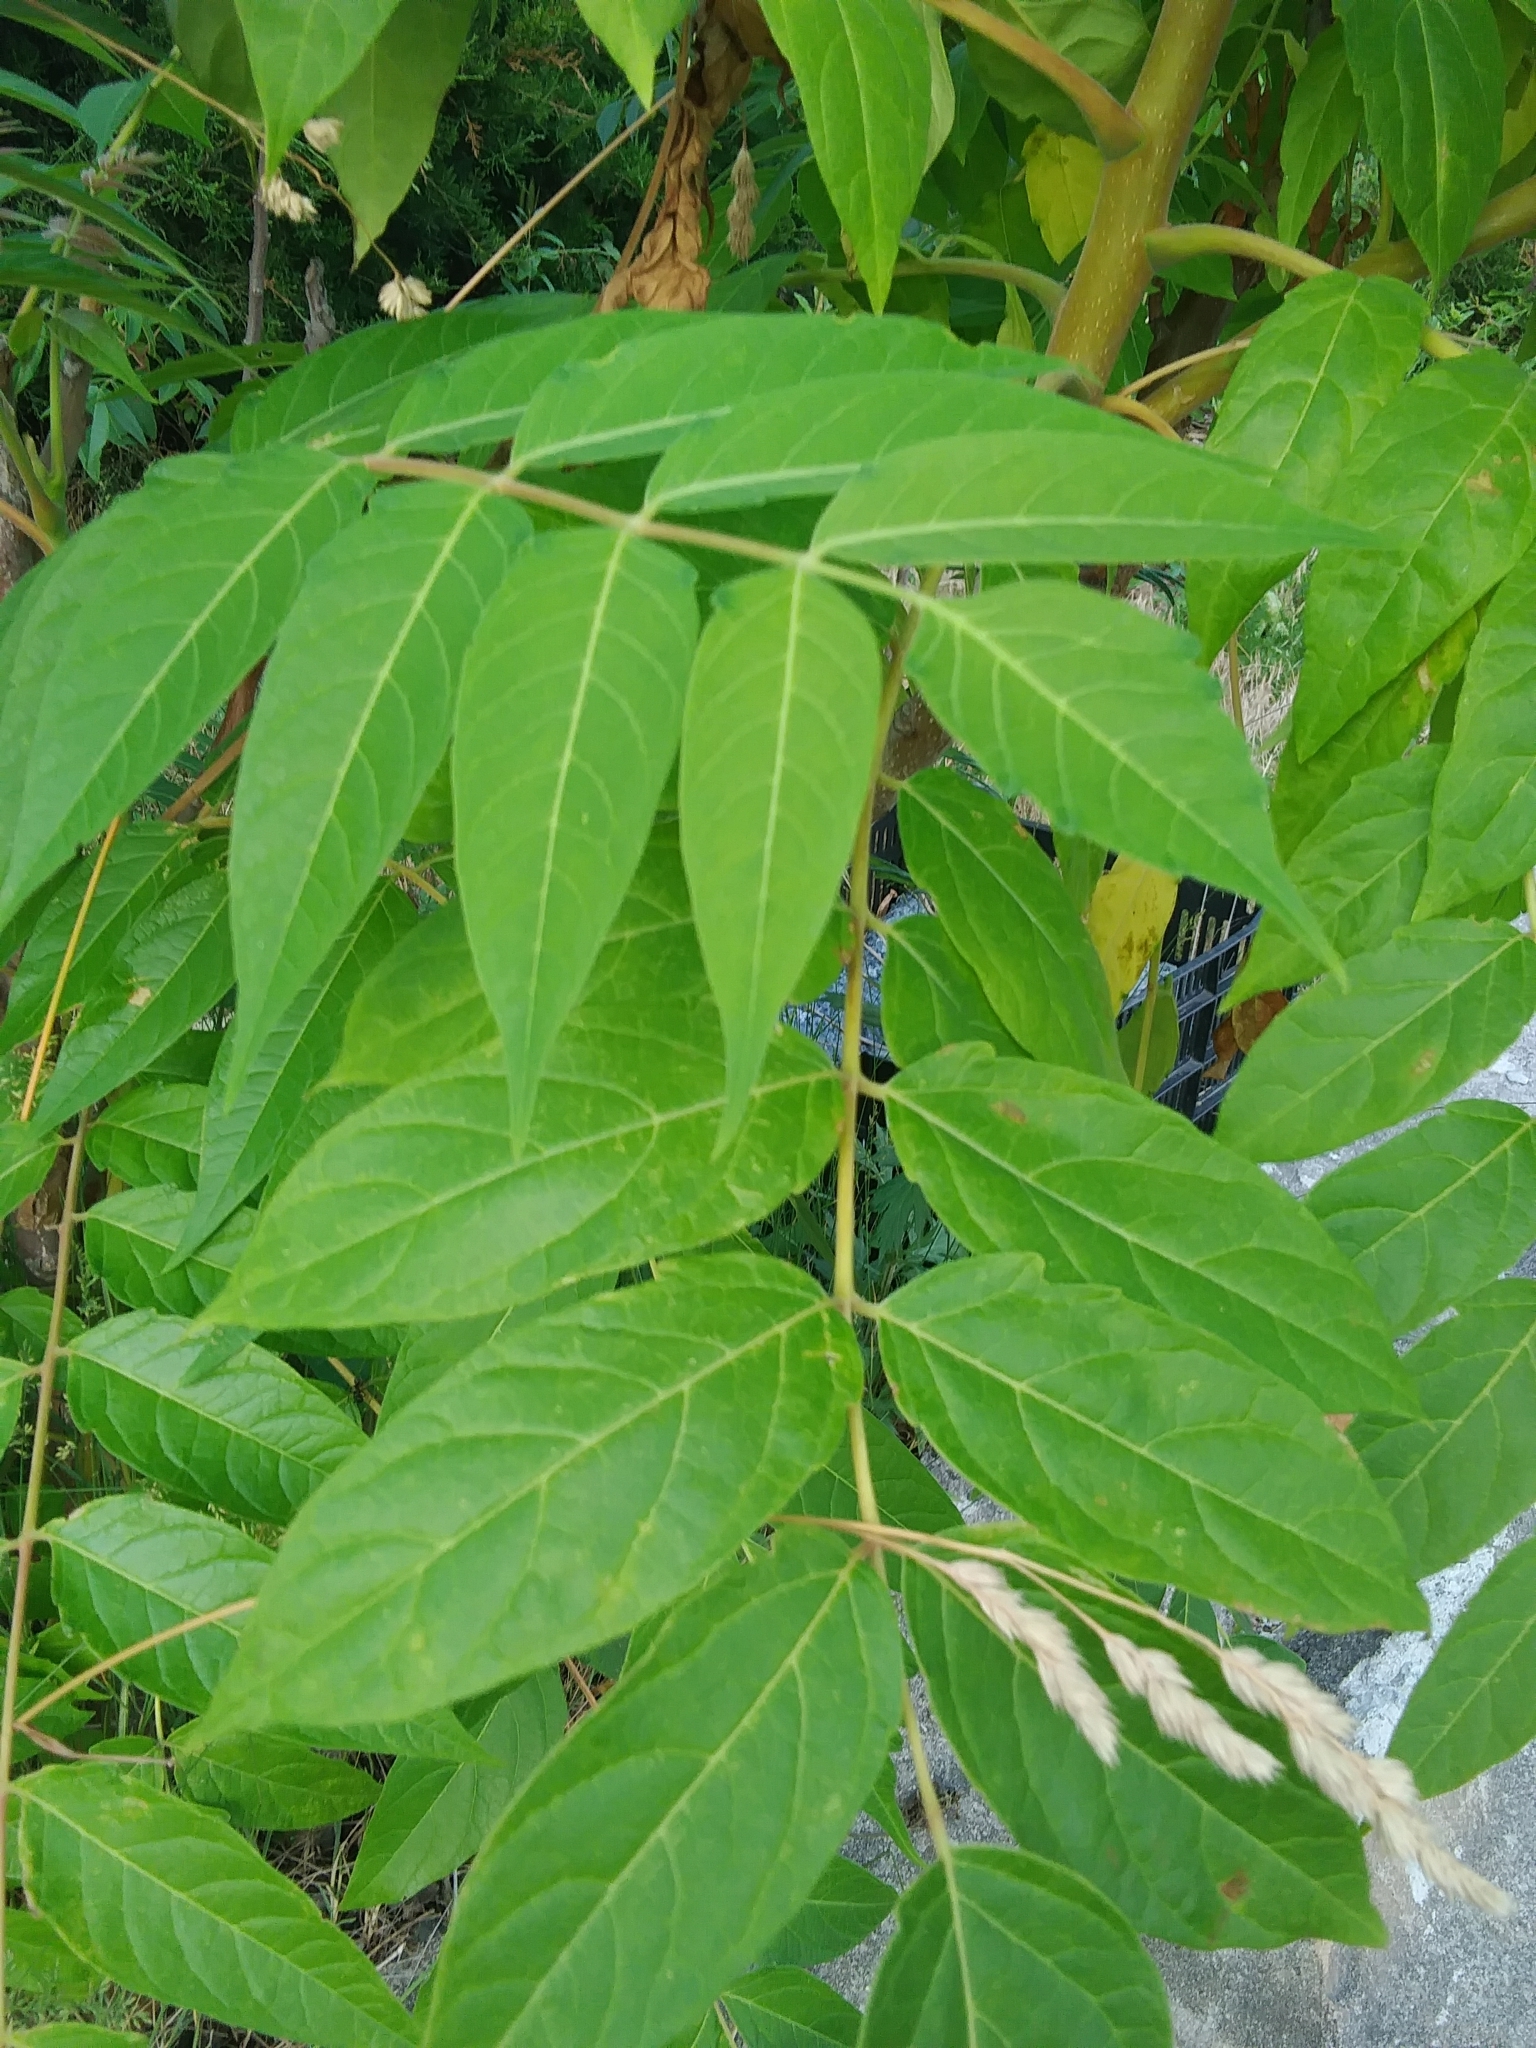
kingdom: Plantae
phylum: Tracheophyta
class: Magnoliopsida
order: Sapindales
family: Simaroubaceae
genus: Ailanthus
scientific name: Ailanthus altissima
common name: Tree-of-heaven
